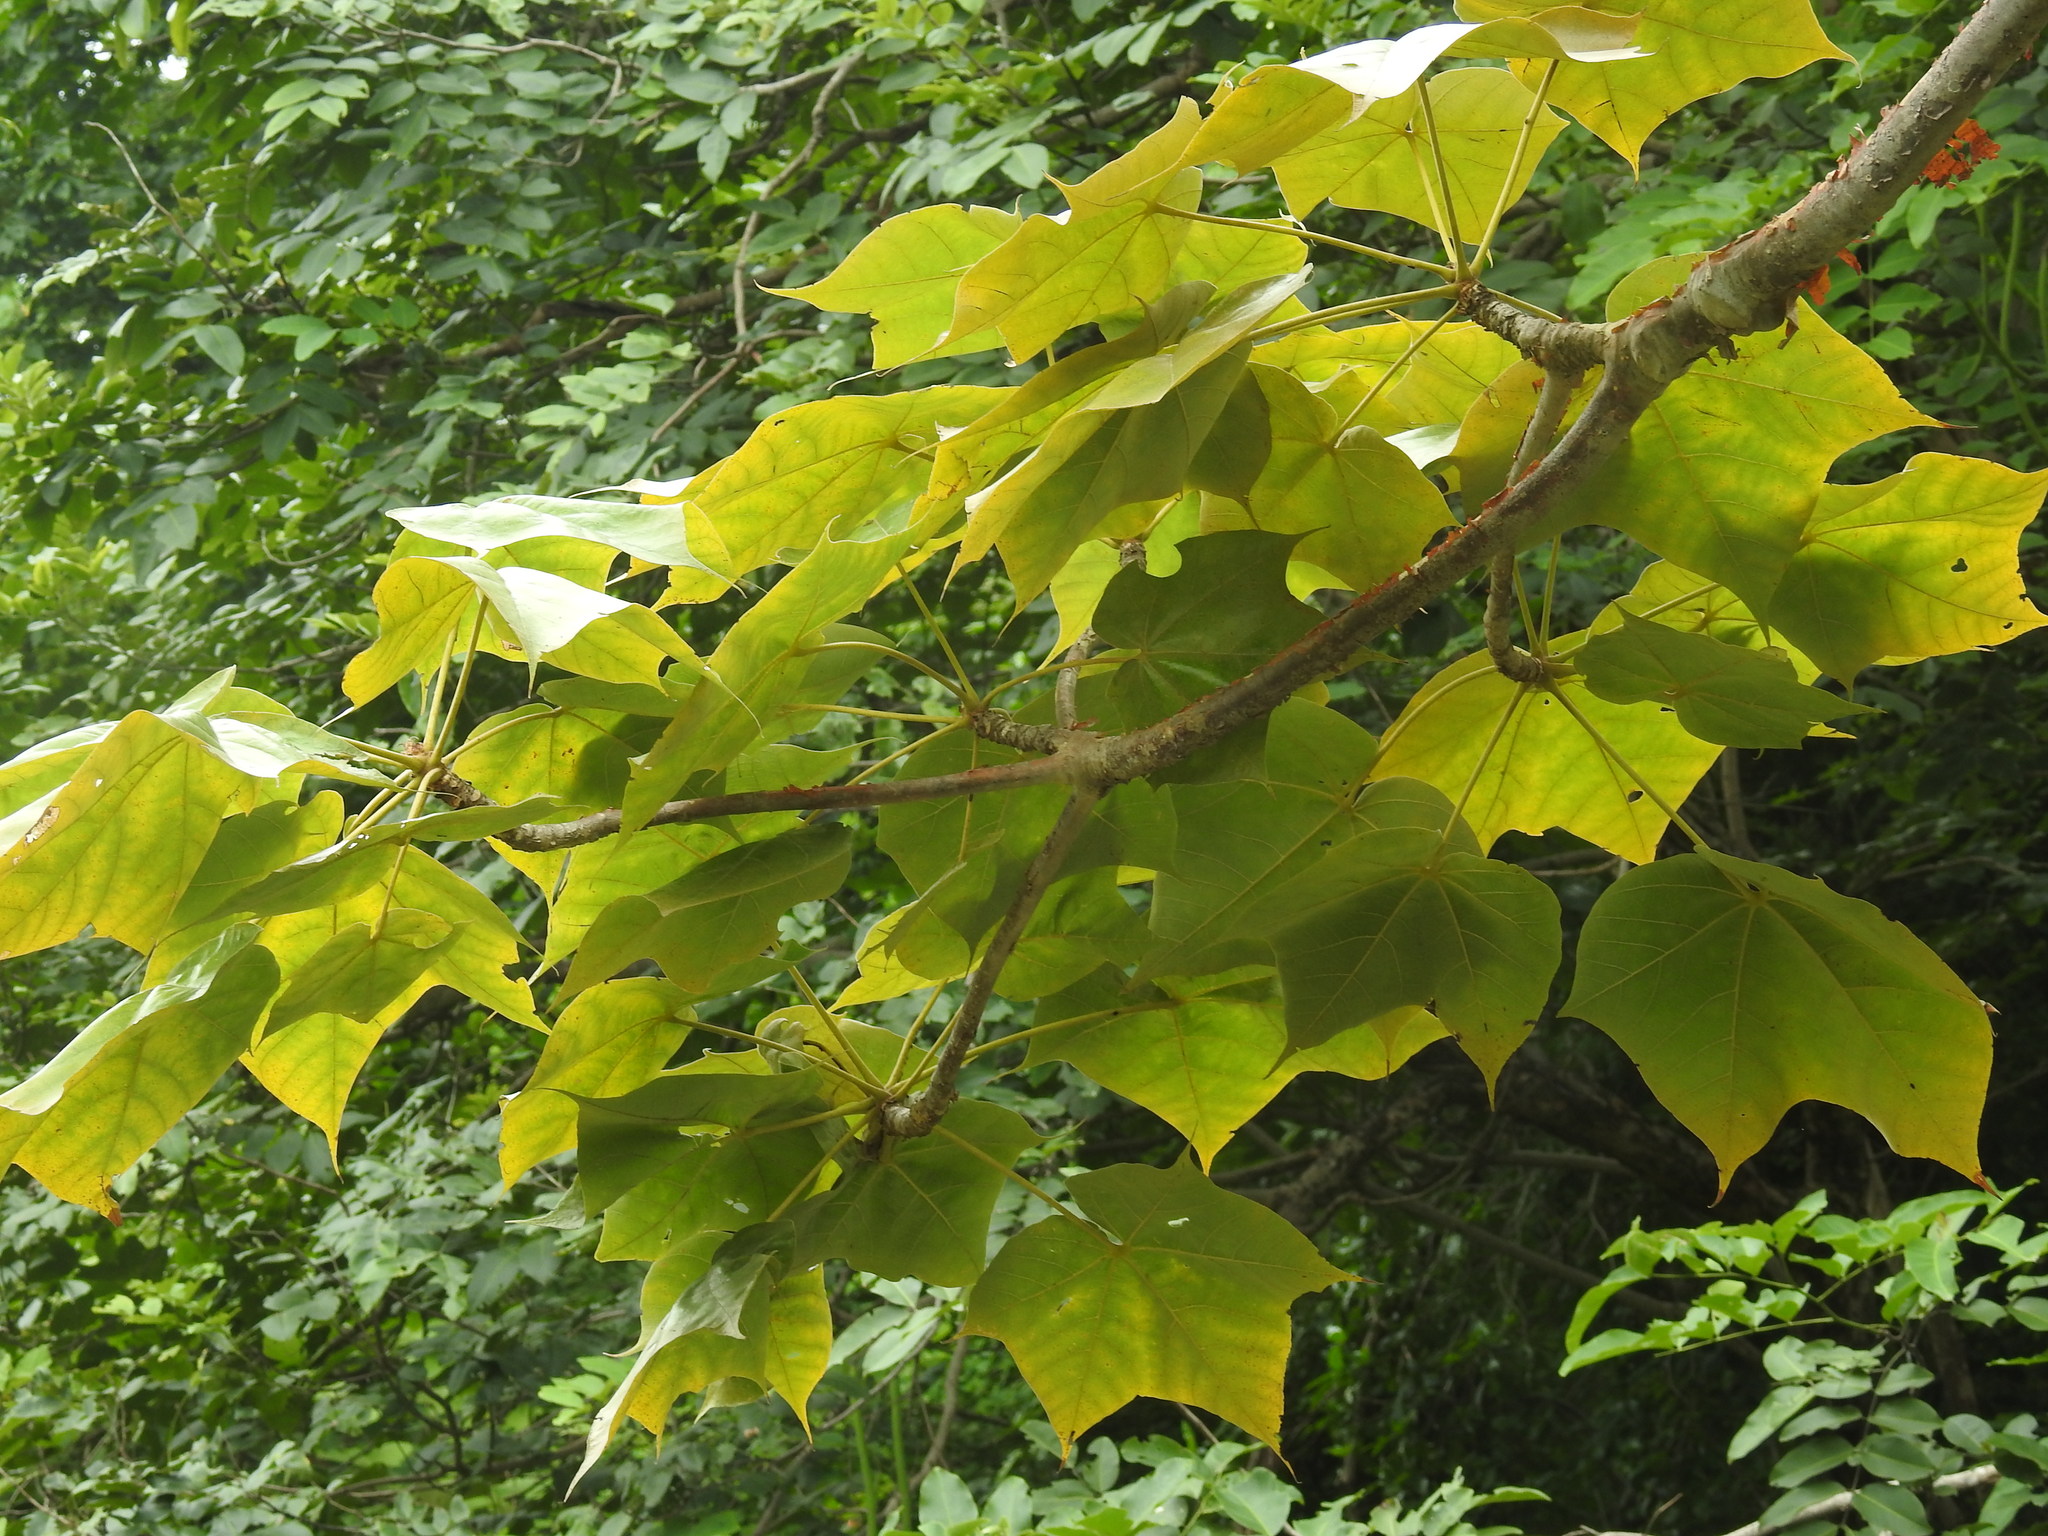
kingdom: Plantae
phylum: Tracheophyta
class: Magnoliopsida
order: Malvales
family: Malvaceae
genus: Sterculia
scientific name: Sterculia urens
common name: Indian-tragacanth
